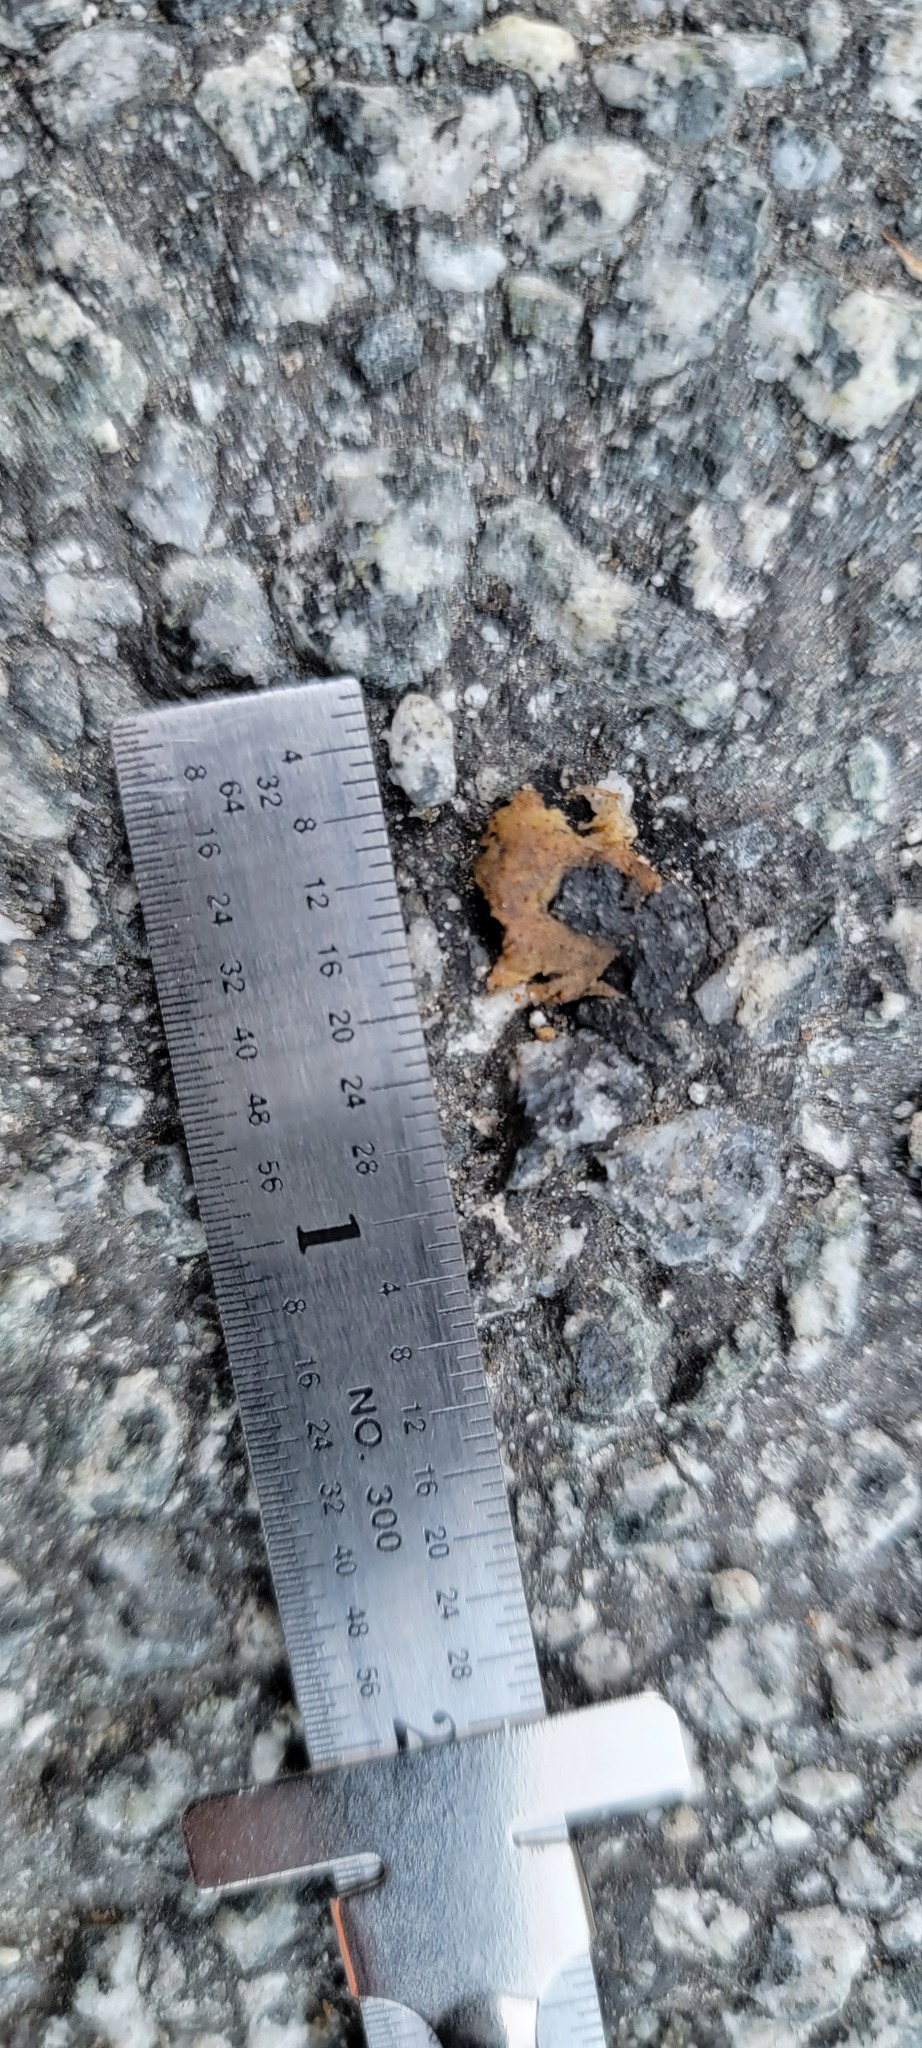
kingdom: Animalia
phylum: Chordata
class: Amphibia
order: Caudata
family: Salamandridae
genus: Taricha
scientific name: Taricha
